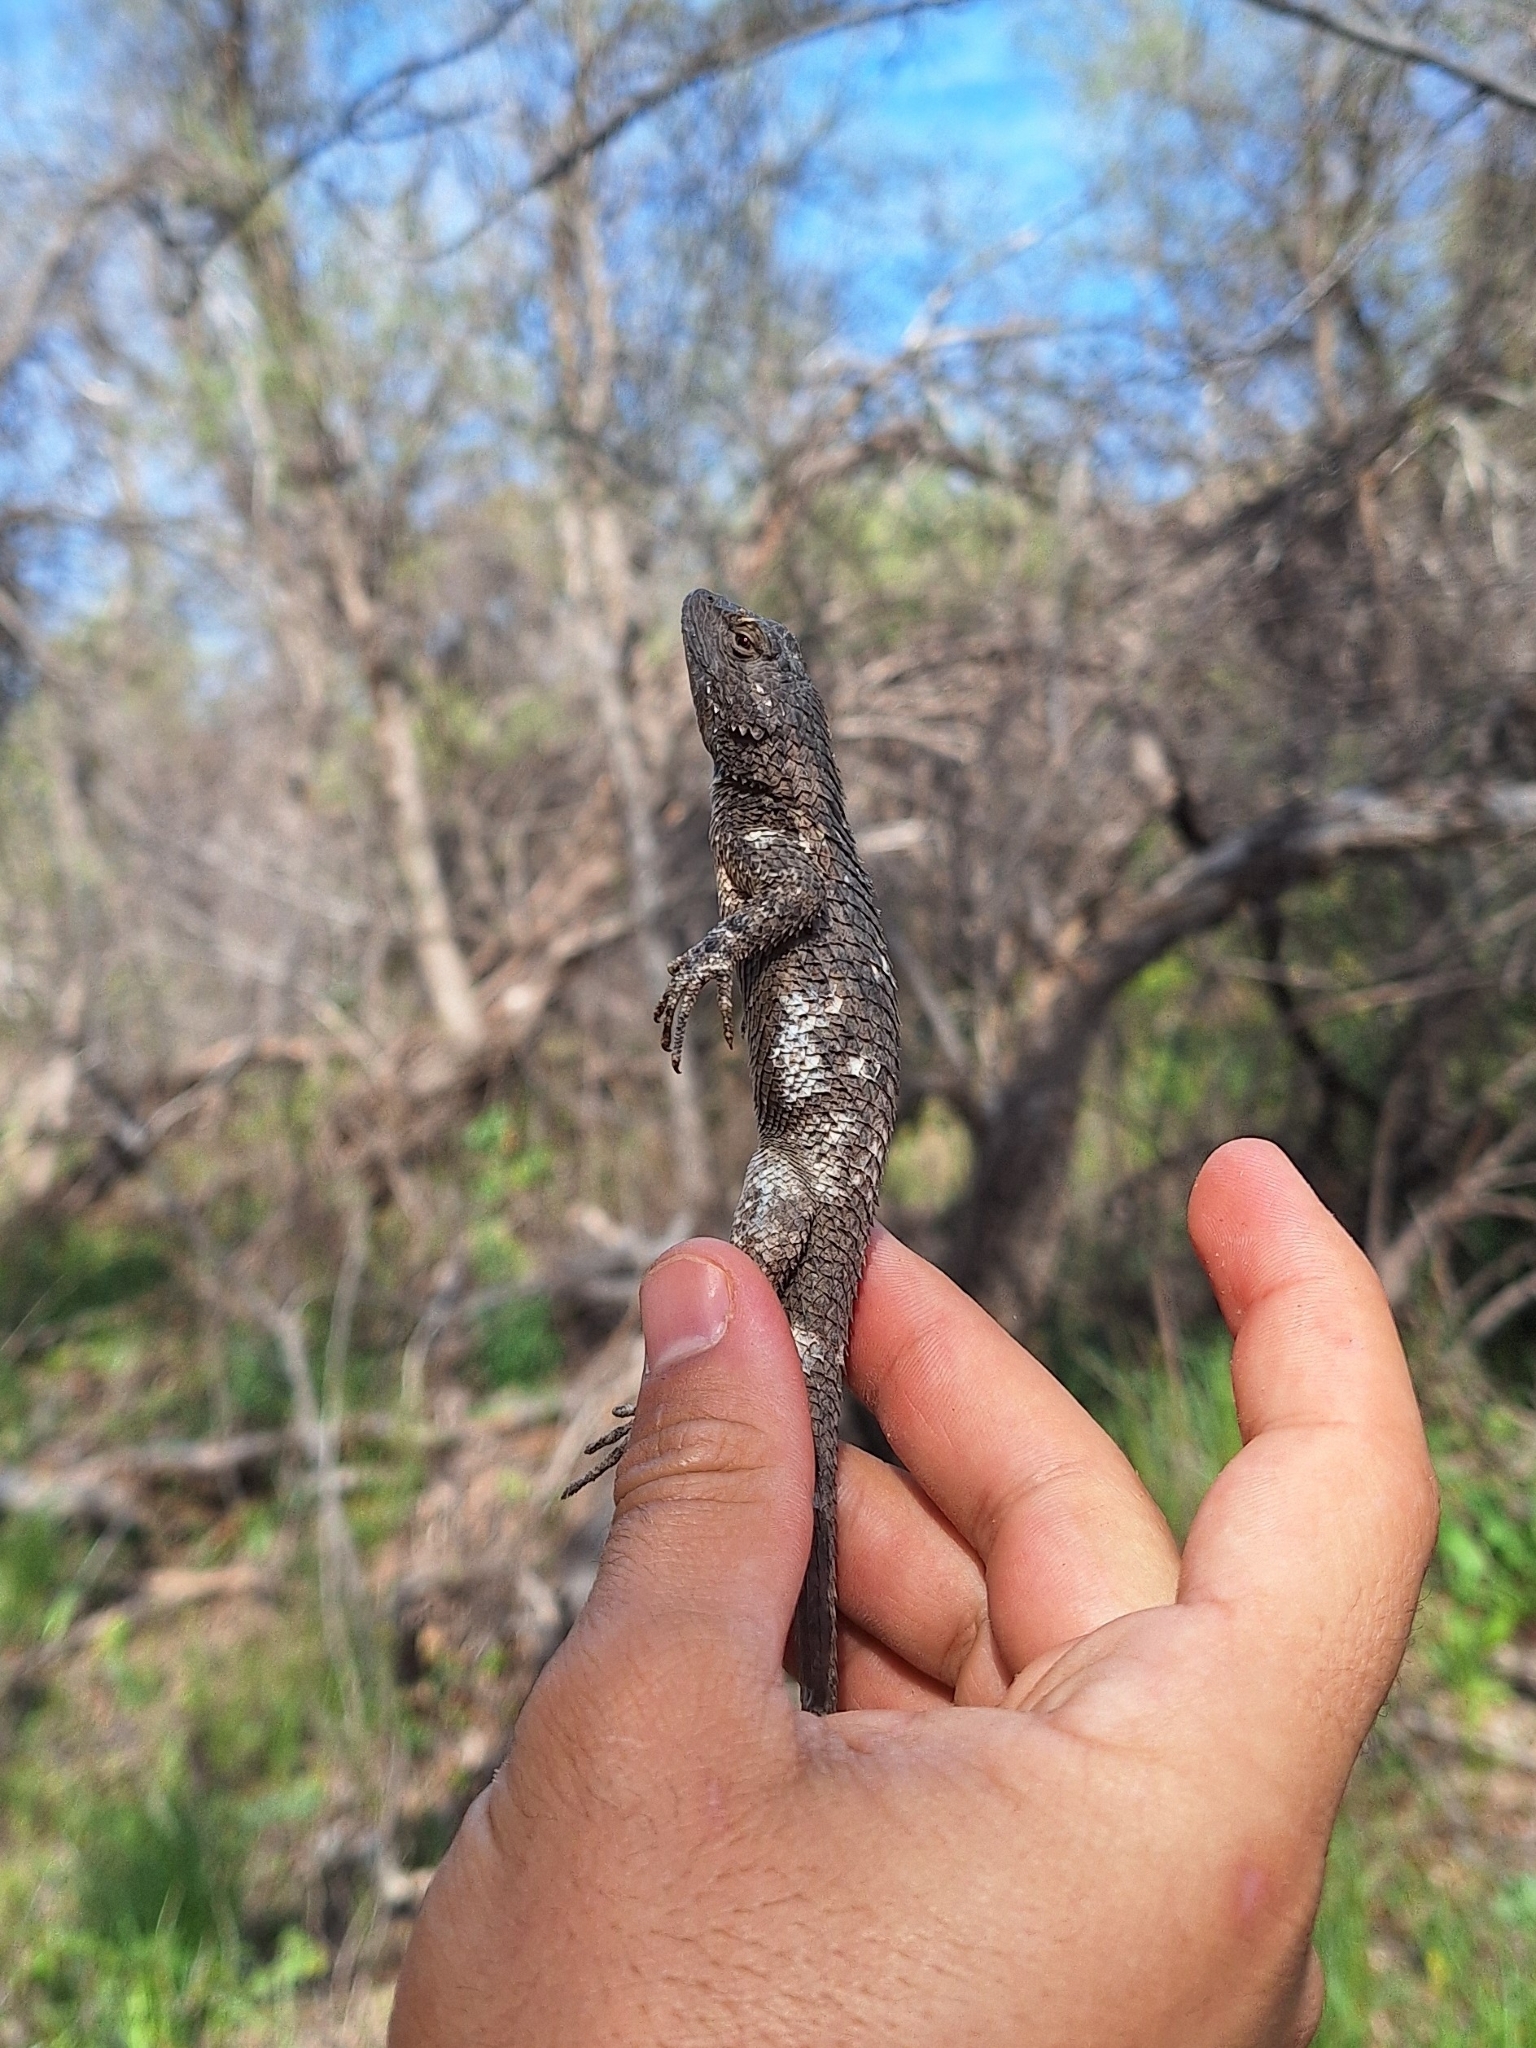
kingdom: Animalia
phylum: Chordata
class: Squamata
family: Phrynosomatidae
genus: Sceloporus
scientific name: Sceloporus clarkii
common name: Clark's spiny lizard
